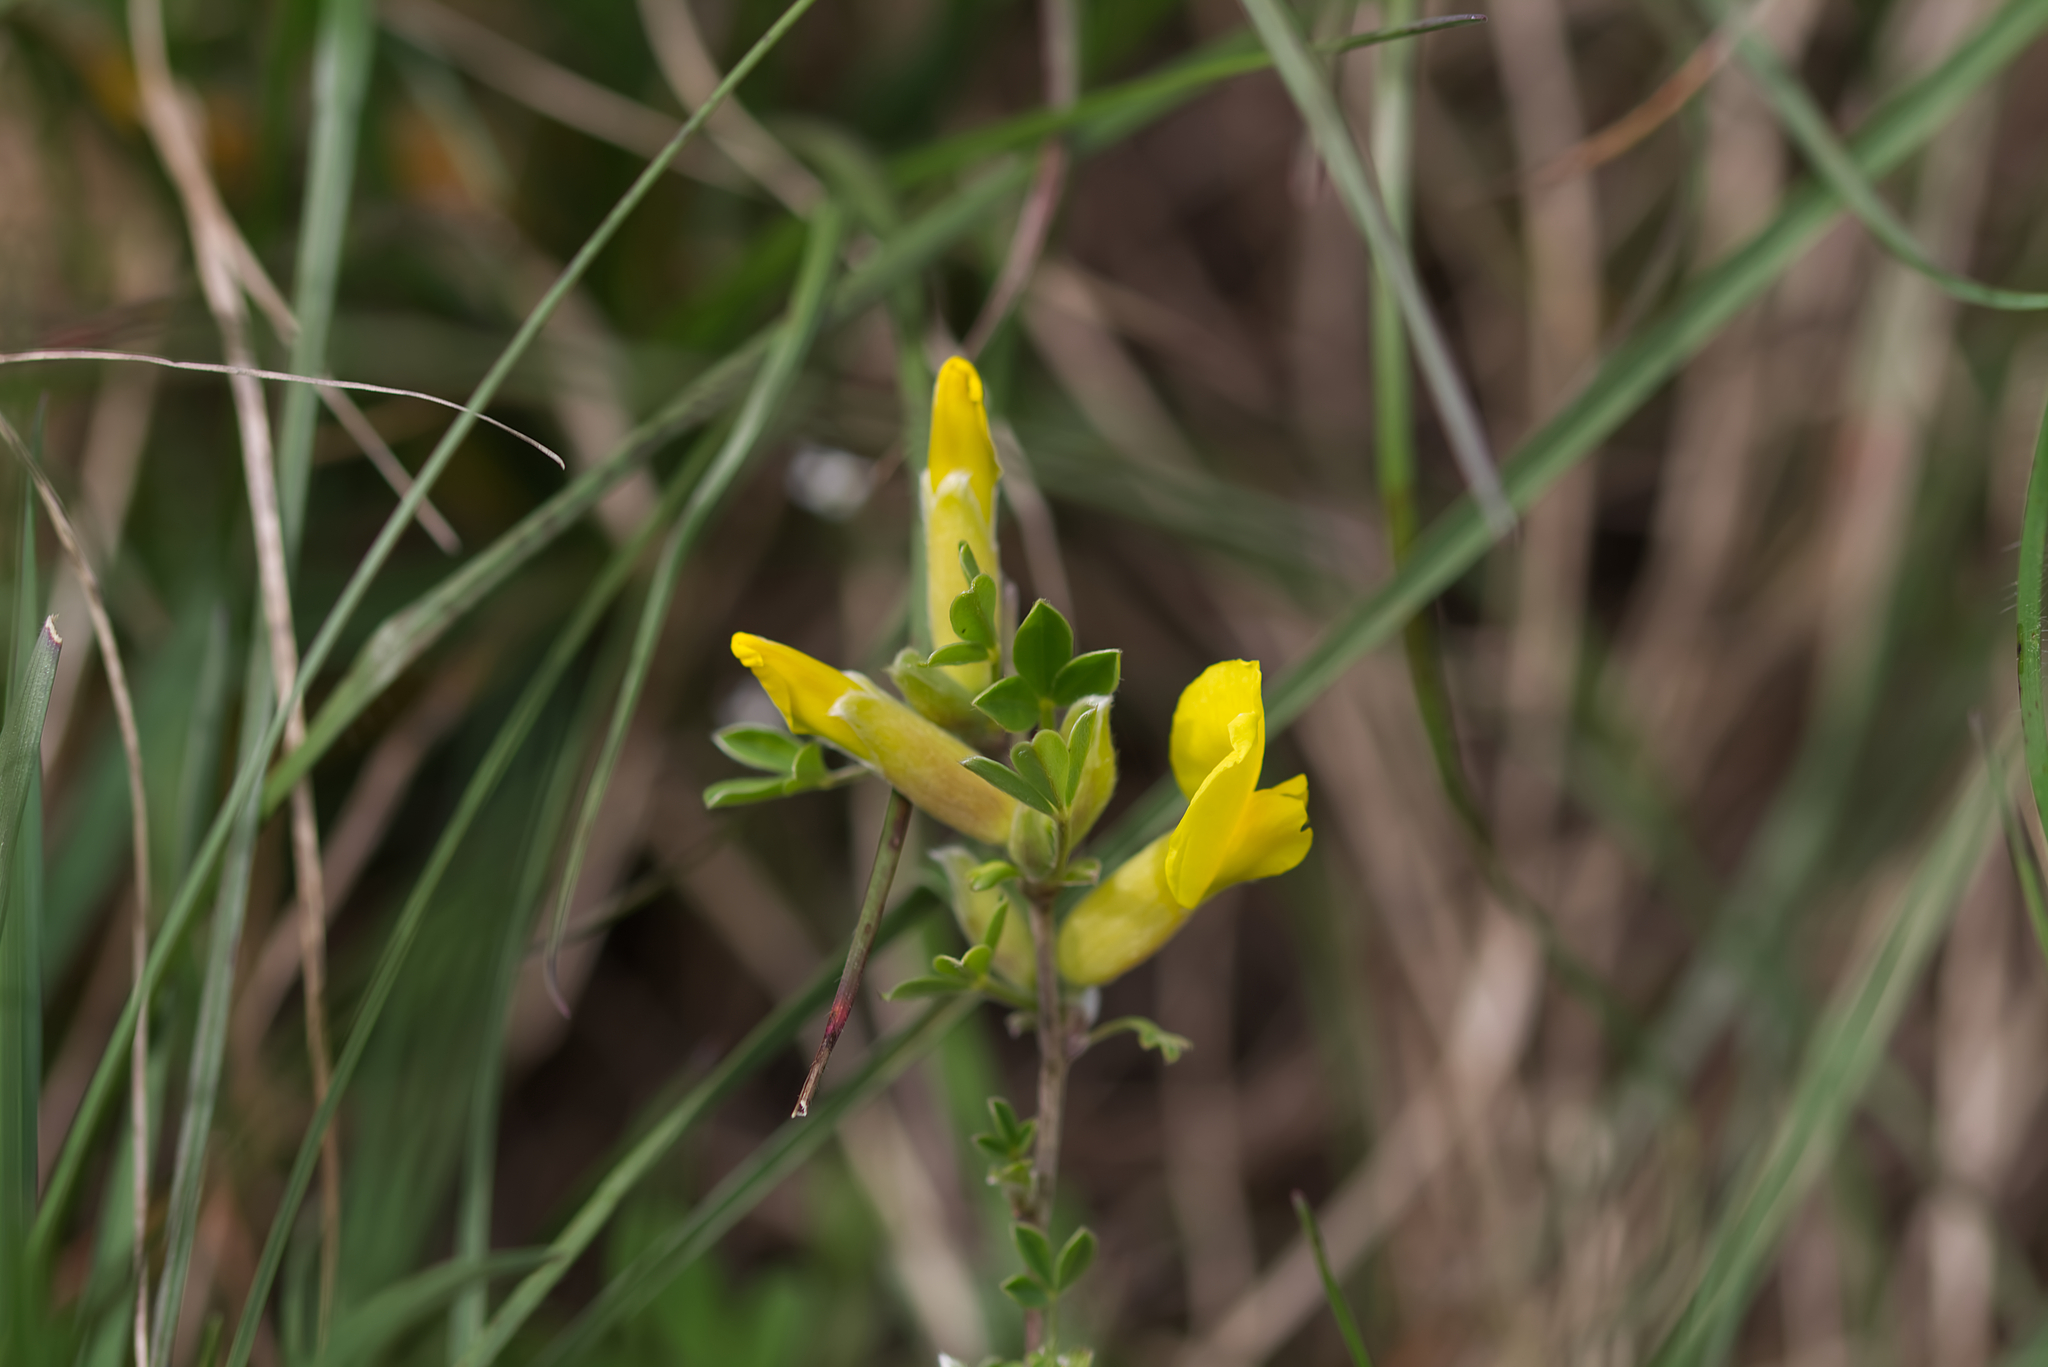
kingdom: Plantae
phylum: Tracheophyta
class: Magnoliopsida
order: Fabales
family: Fabaceae
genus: Chamaecytisus
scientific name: Chamaecytisus ratisbonensis
